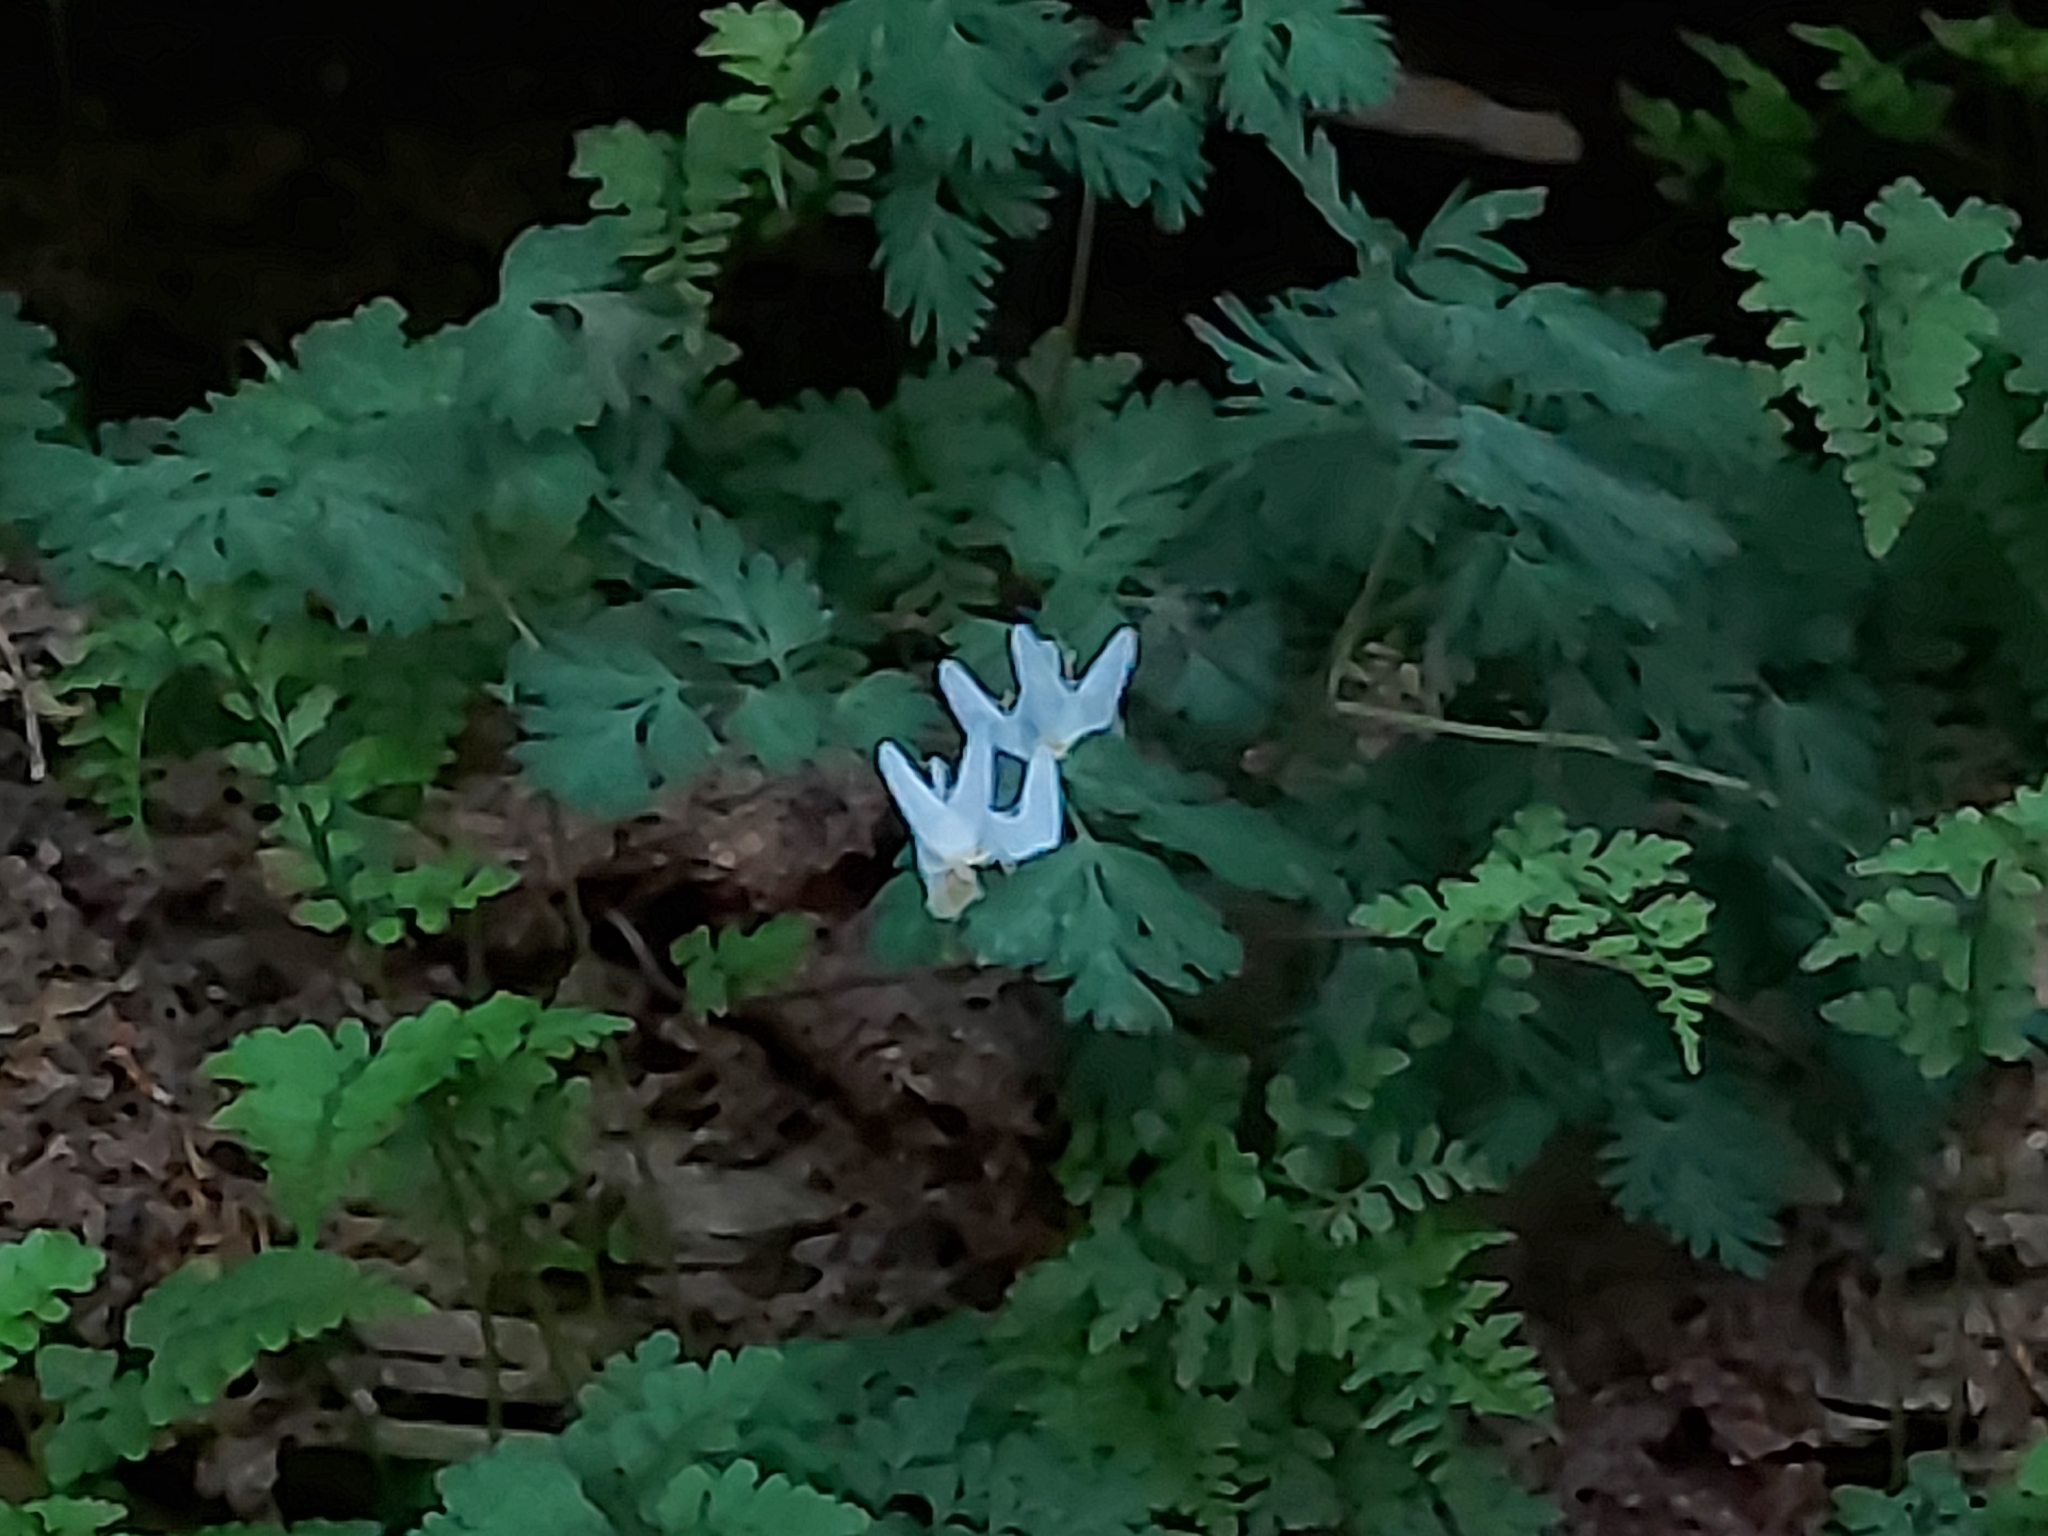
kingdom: Plantae
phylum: Tracheophyta
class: Magnoliopsida
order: Ranunculales
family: Papaveraceae
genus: Dicentra
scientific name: Dicentra cucullaria
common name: Dutchman's breeches
